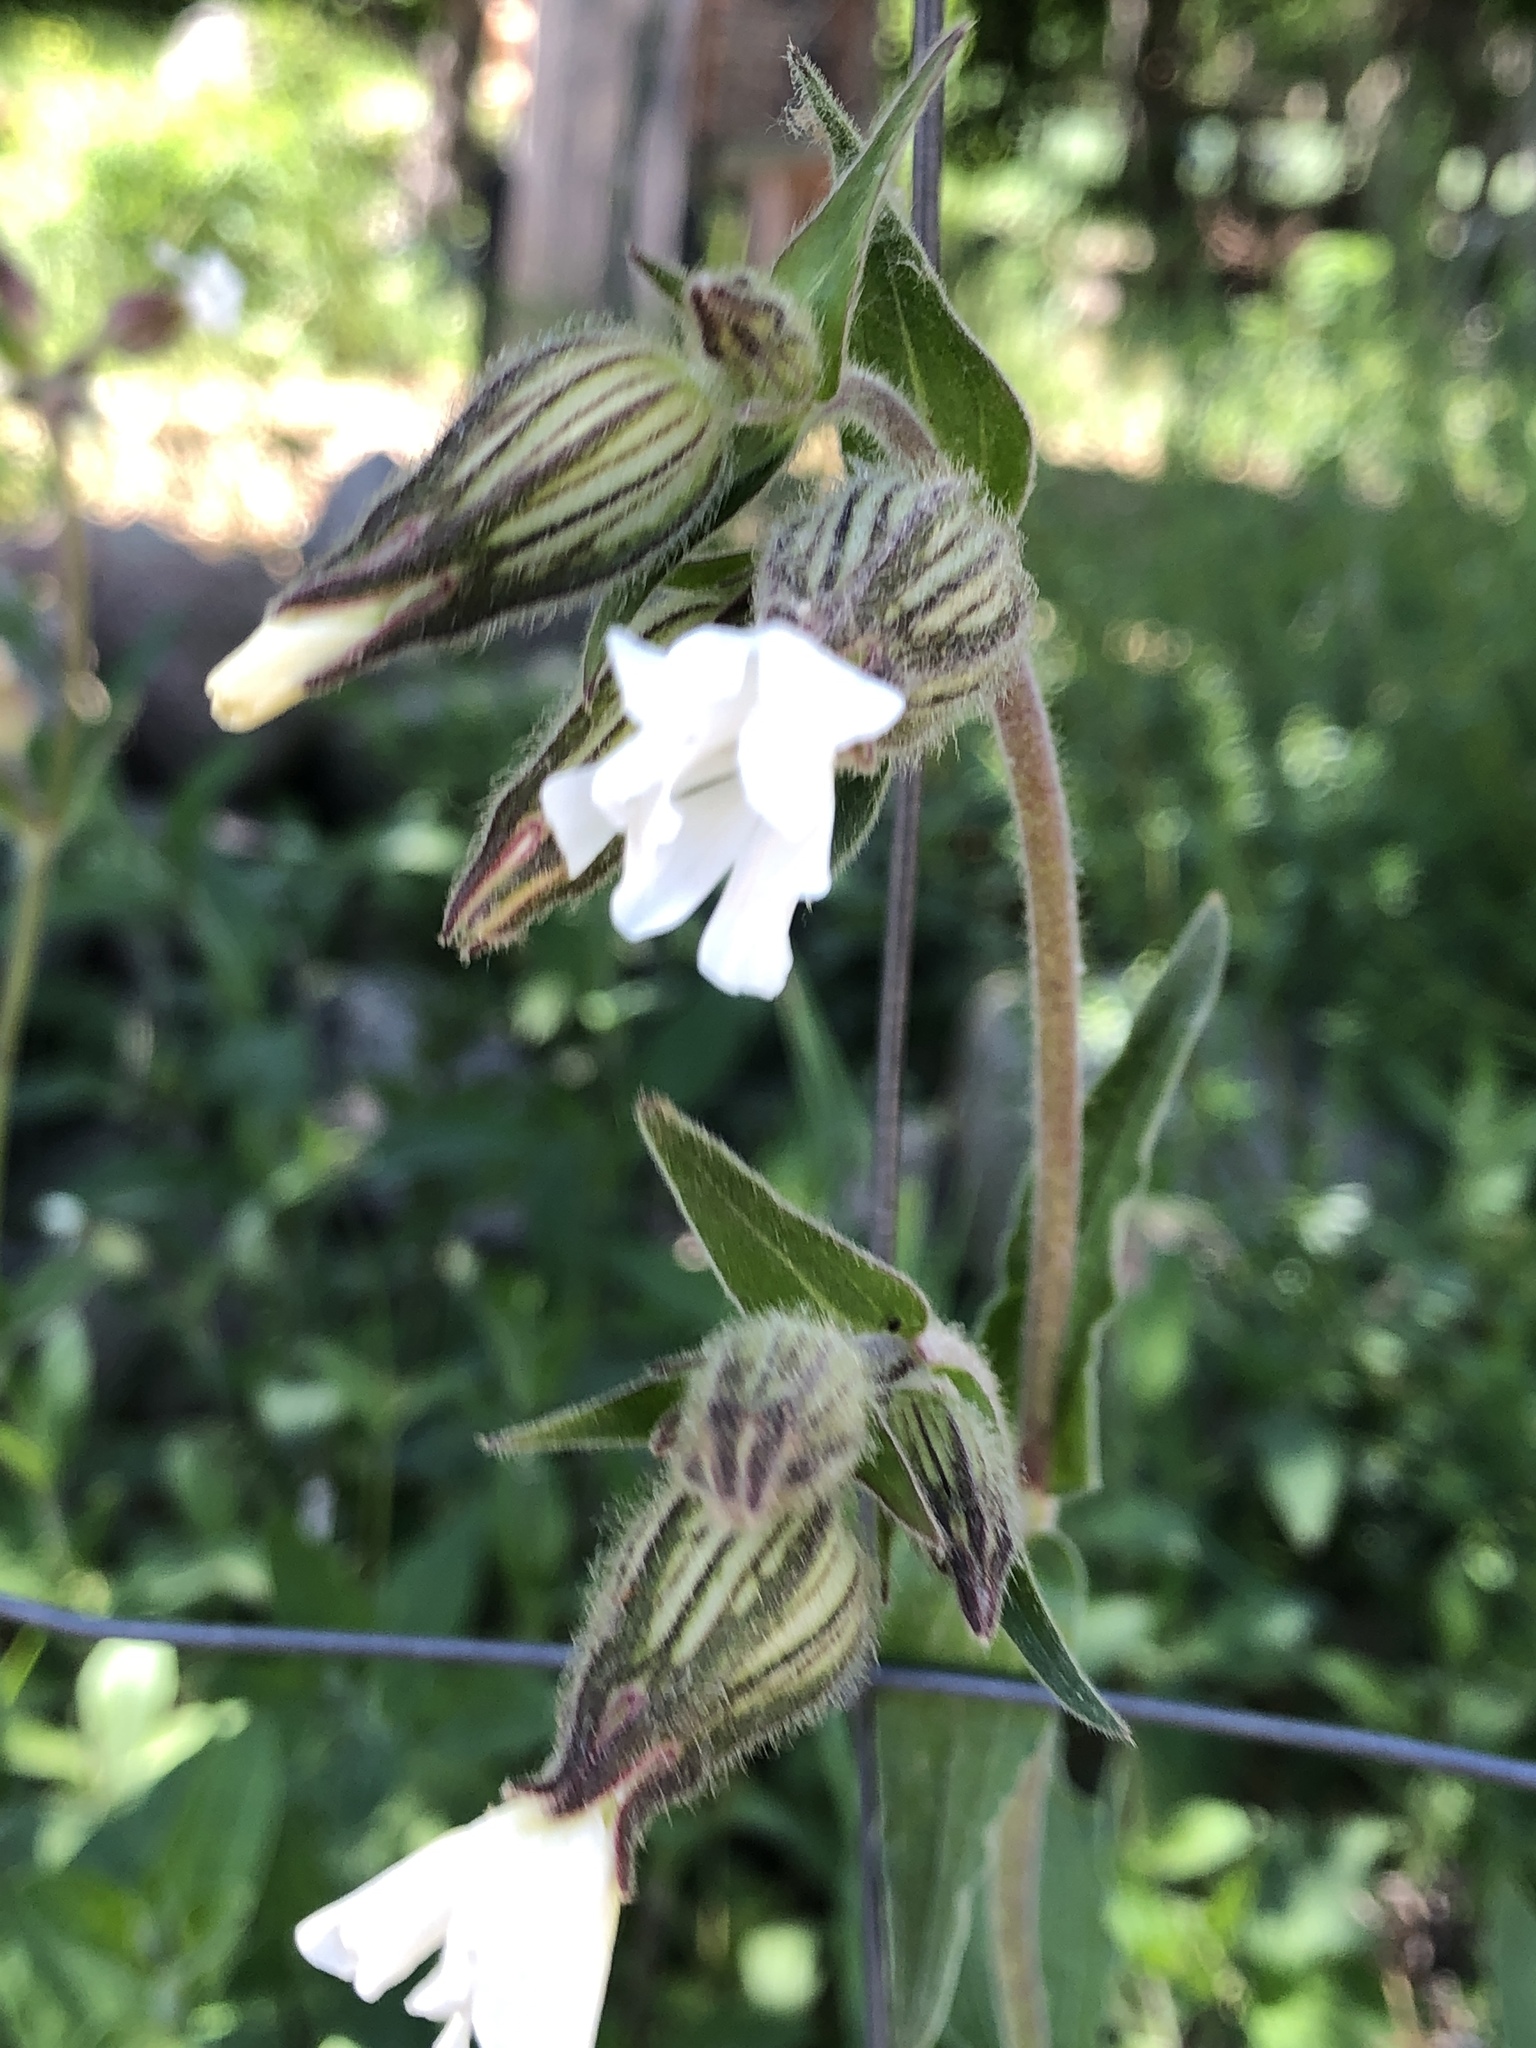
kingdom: Plantae
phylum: Tracheophyta
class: Magnoliopsida
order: Caryophyllales
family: Caryophyllaceae
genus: Silene
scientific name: Silene latifolia
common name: White campion
